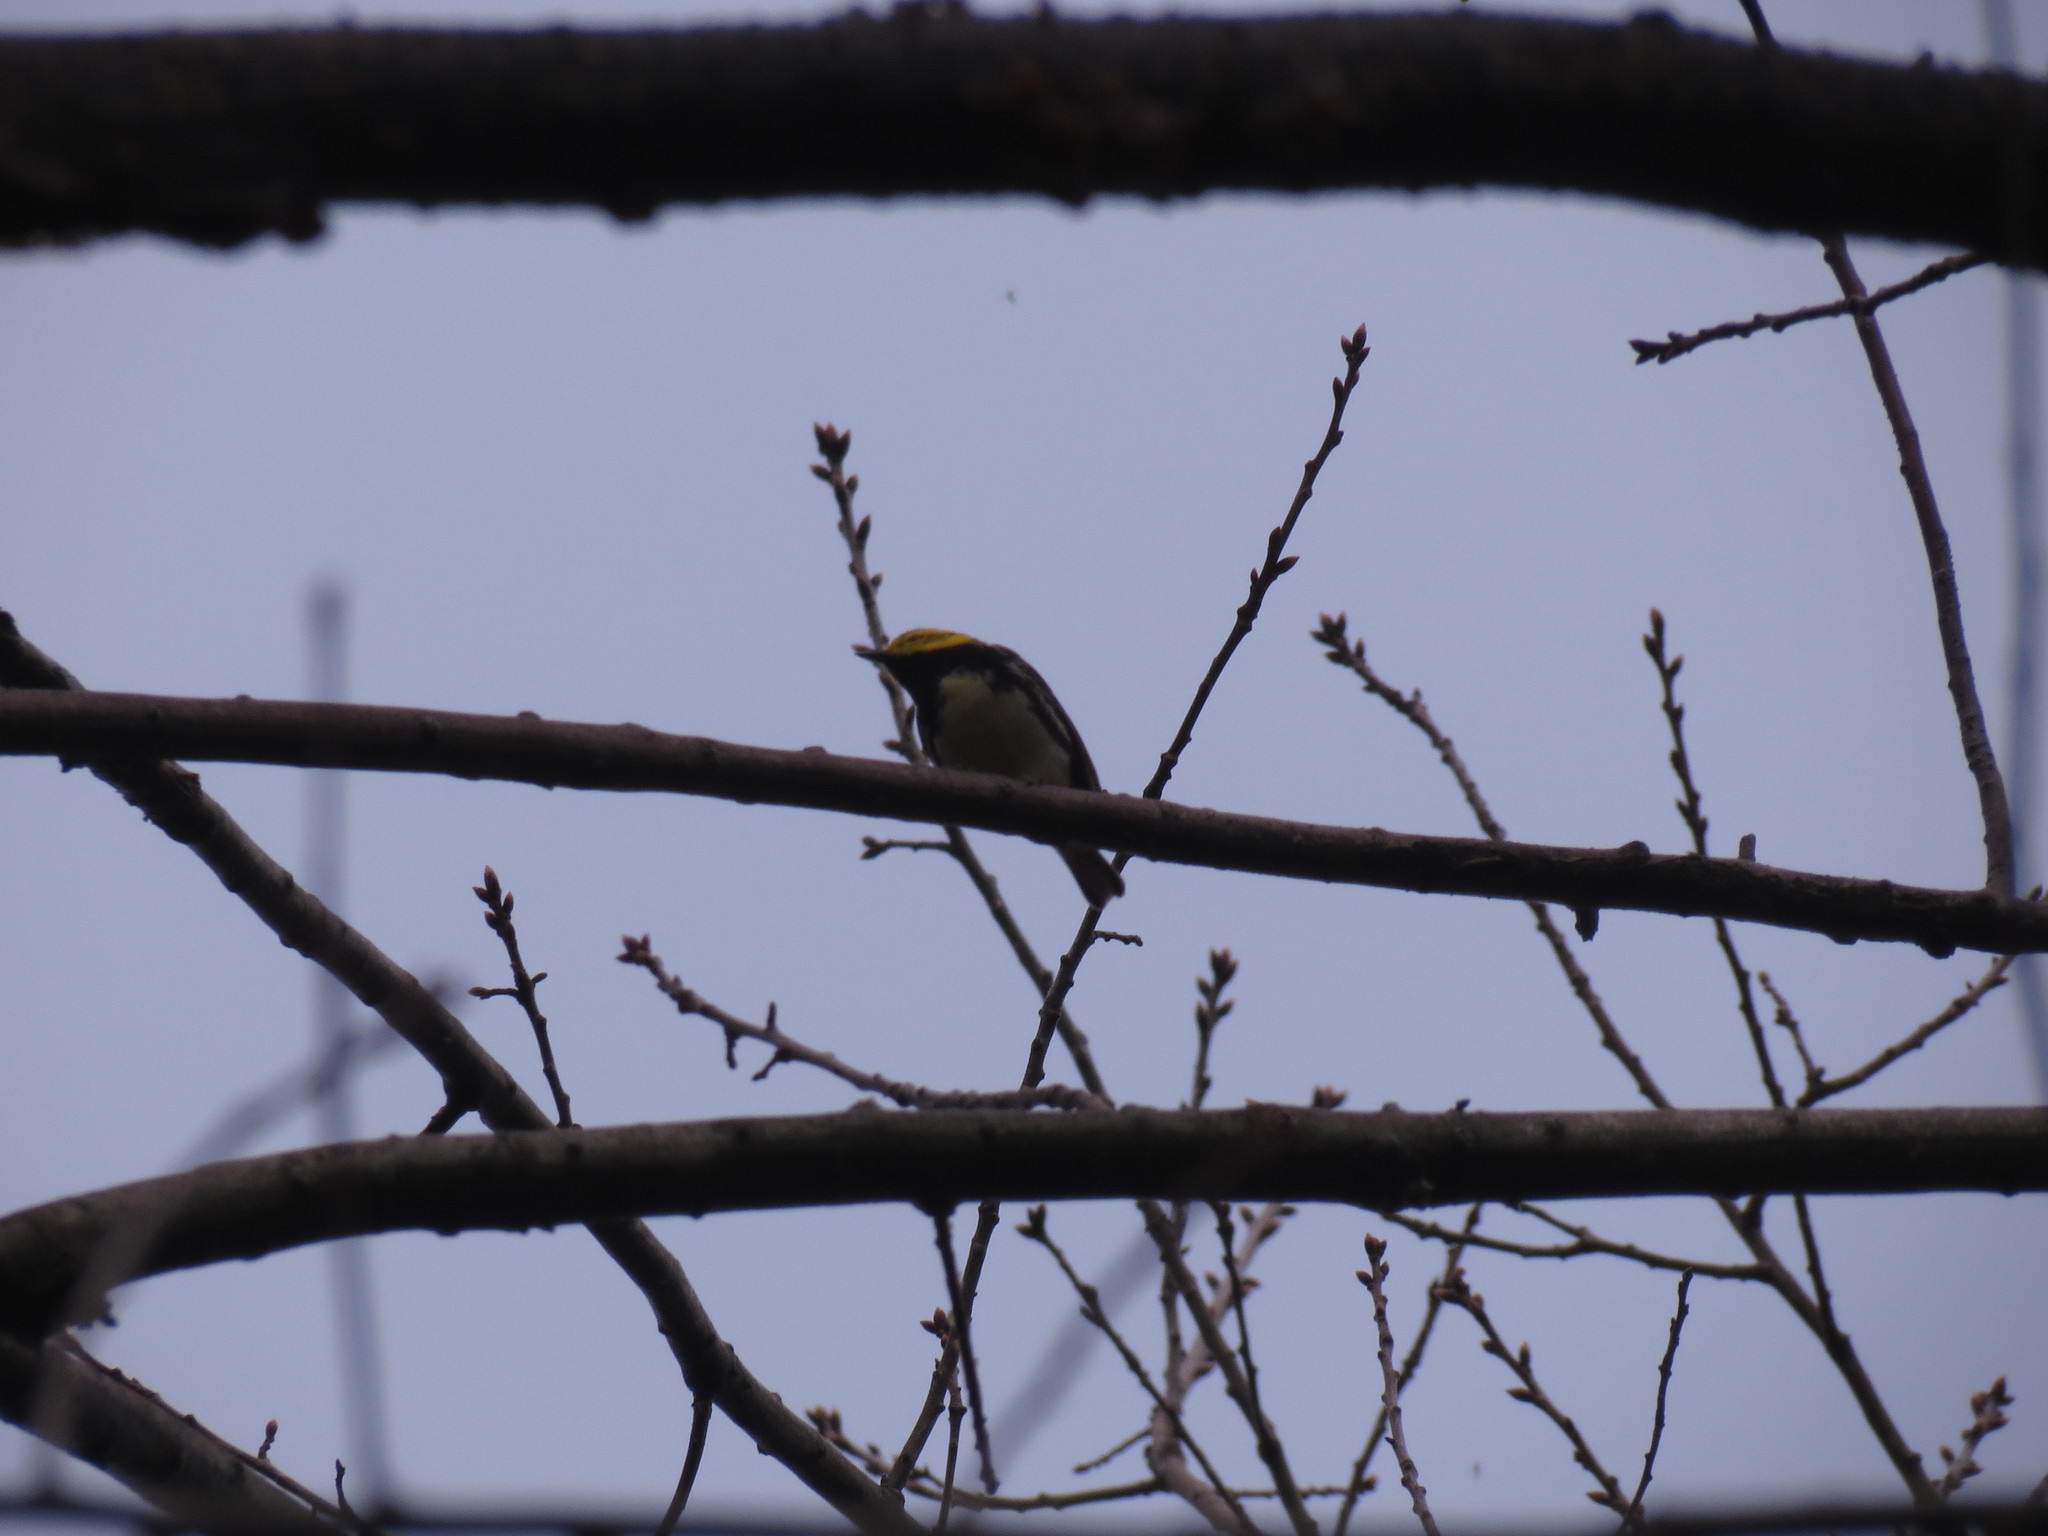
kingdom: Animalia
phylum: Chordata
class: Aves
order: Passeriformes
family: Parulidae
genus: Setophaga
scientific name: Setophaga virens
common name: Black-throated green warbler
